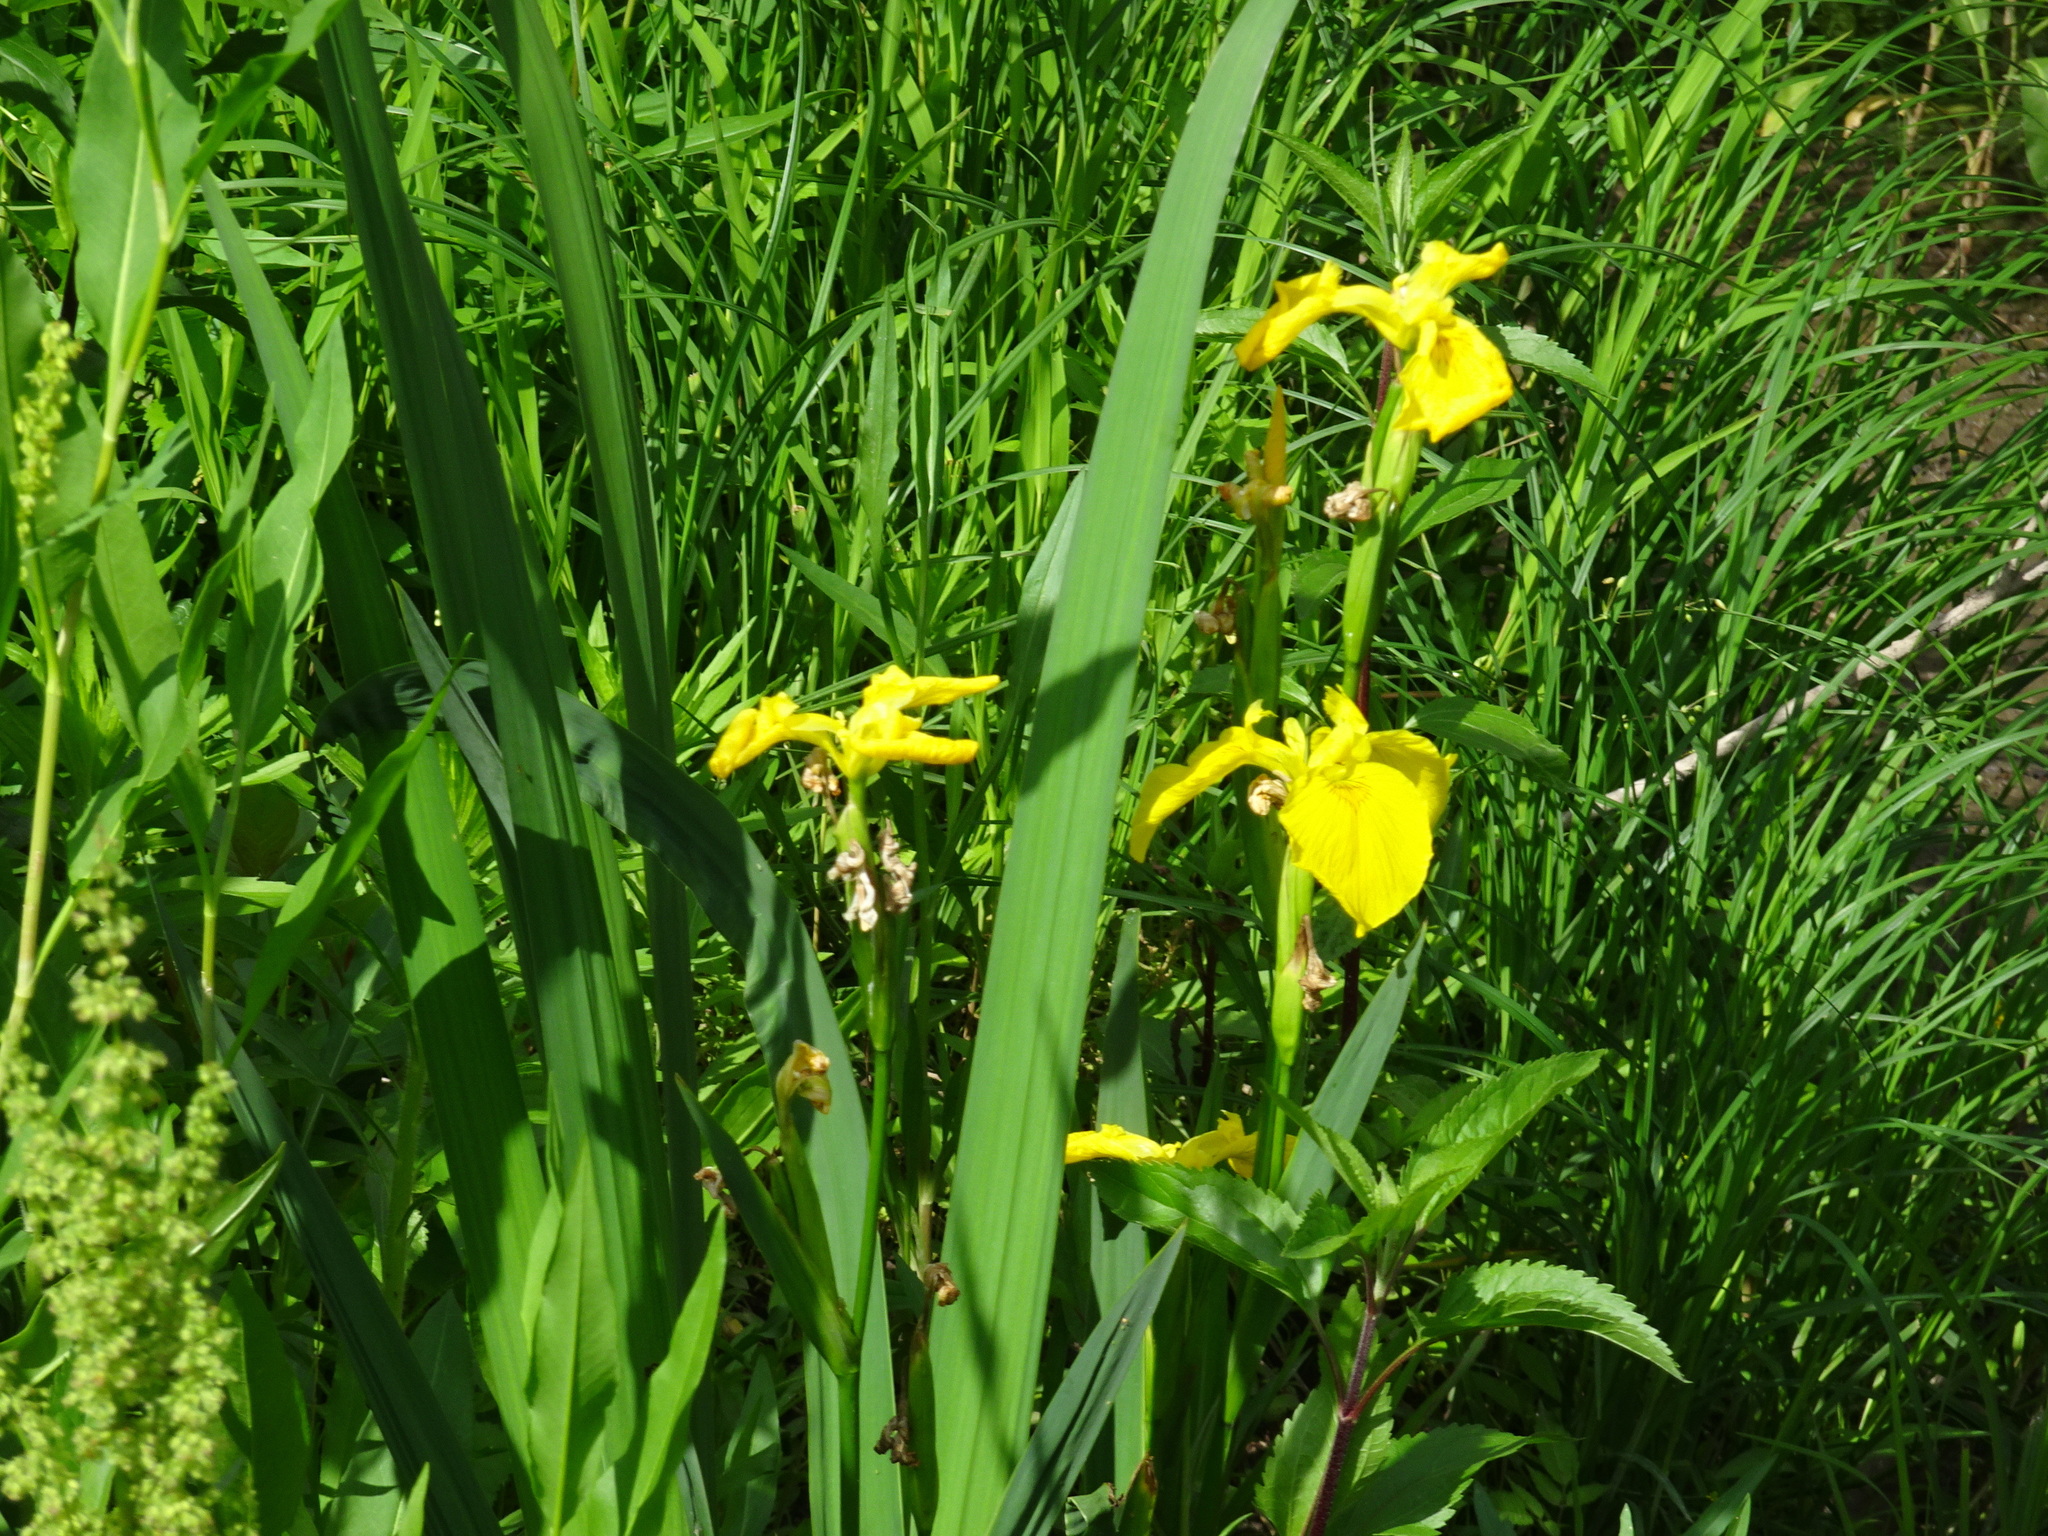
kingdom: Plantae
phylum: Tracheophyta
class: Liliopsida
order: Asparagales
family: Iridaceae
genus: Iris
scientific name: Iris pseudacorus
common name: Yellow flag
